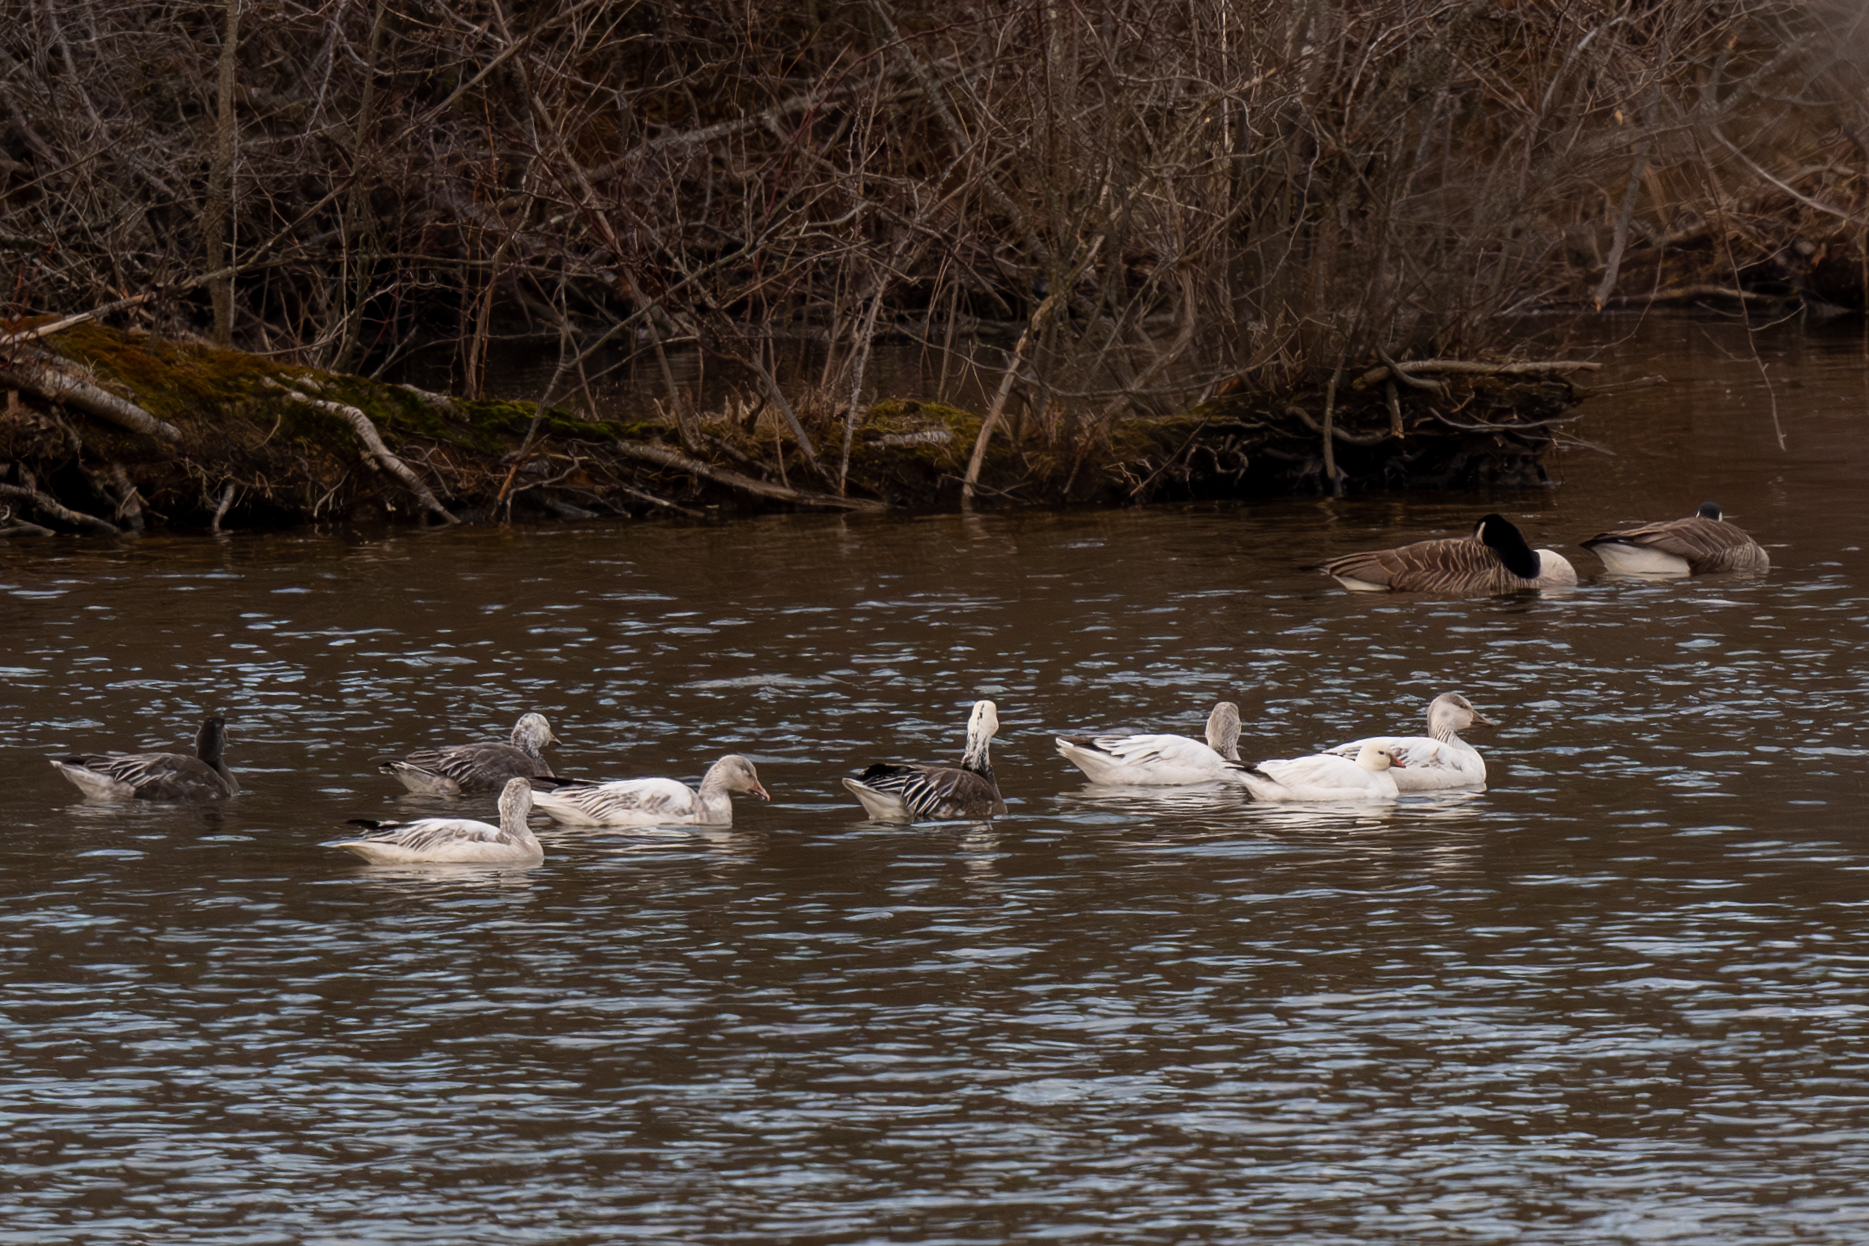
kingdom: Animalia
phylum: Chordata
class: Aves
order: Anseriformes
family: Anatidae
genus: Anser
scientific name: Anser caerulescens
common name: Snow goose
